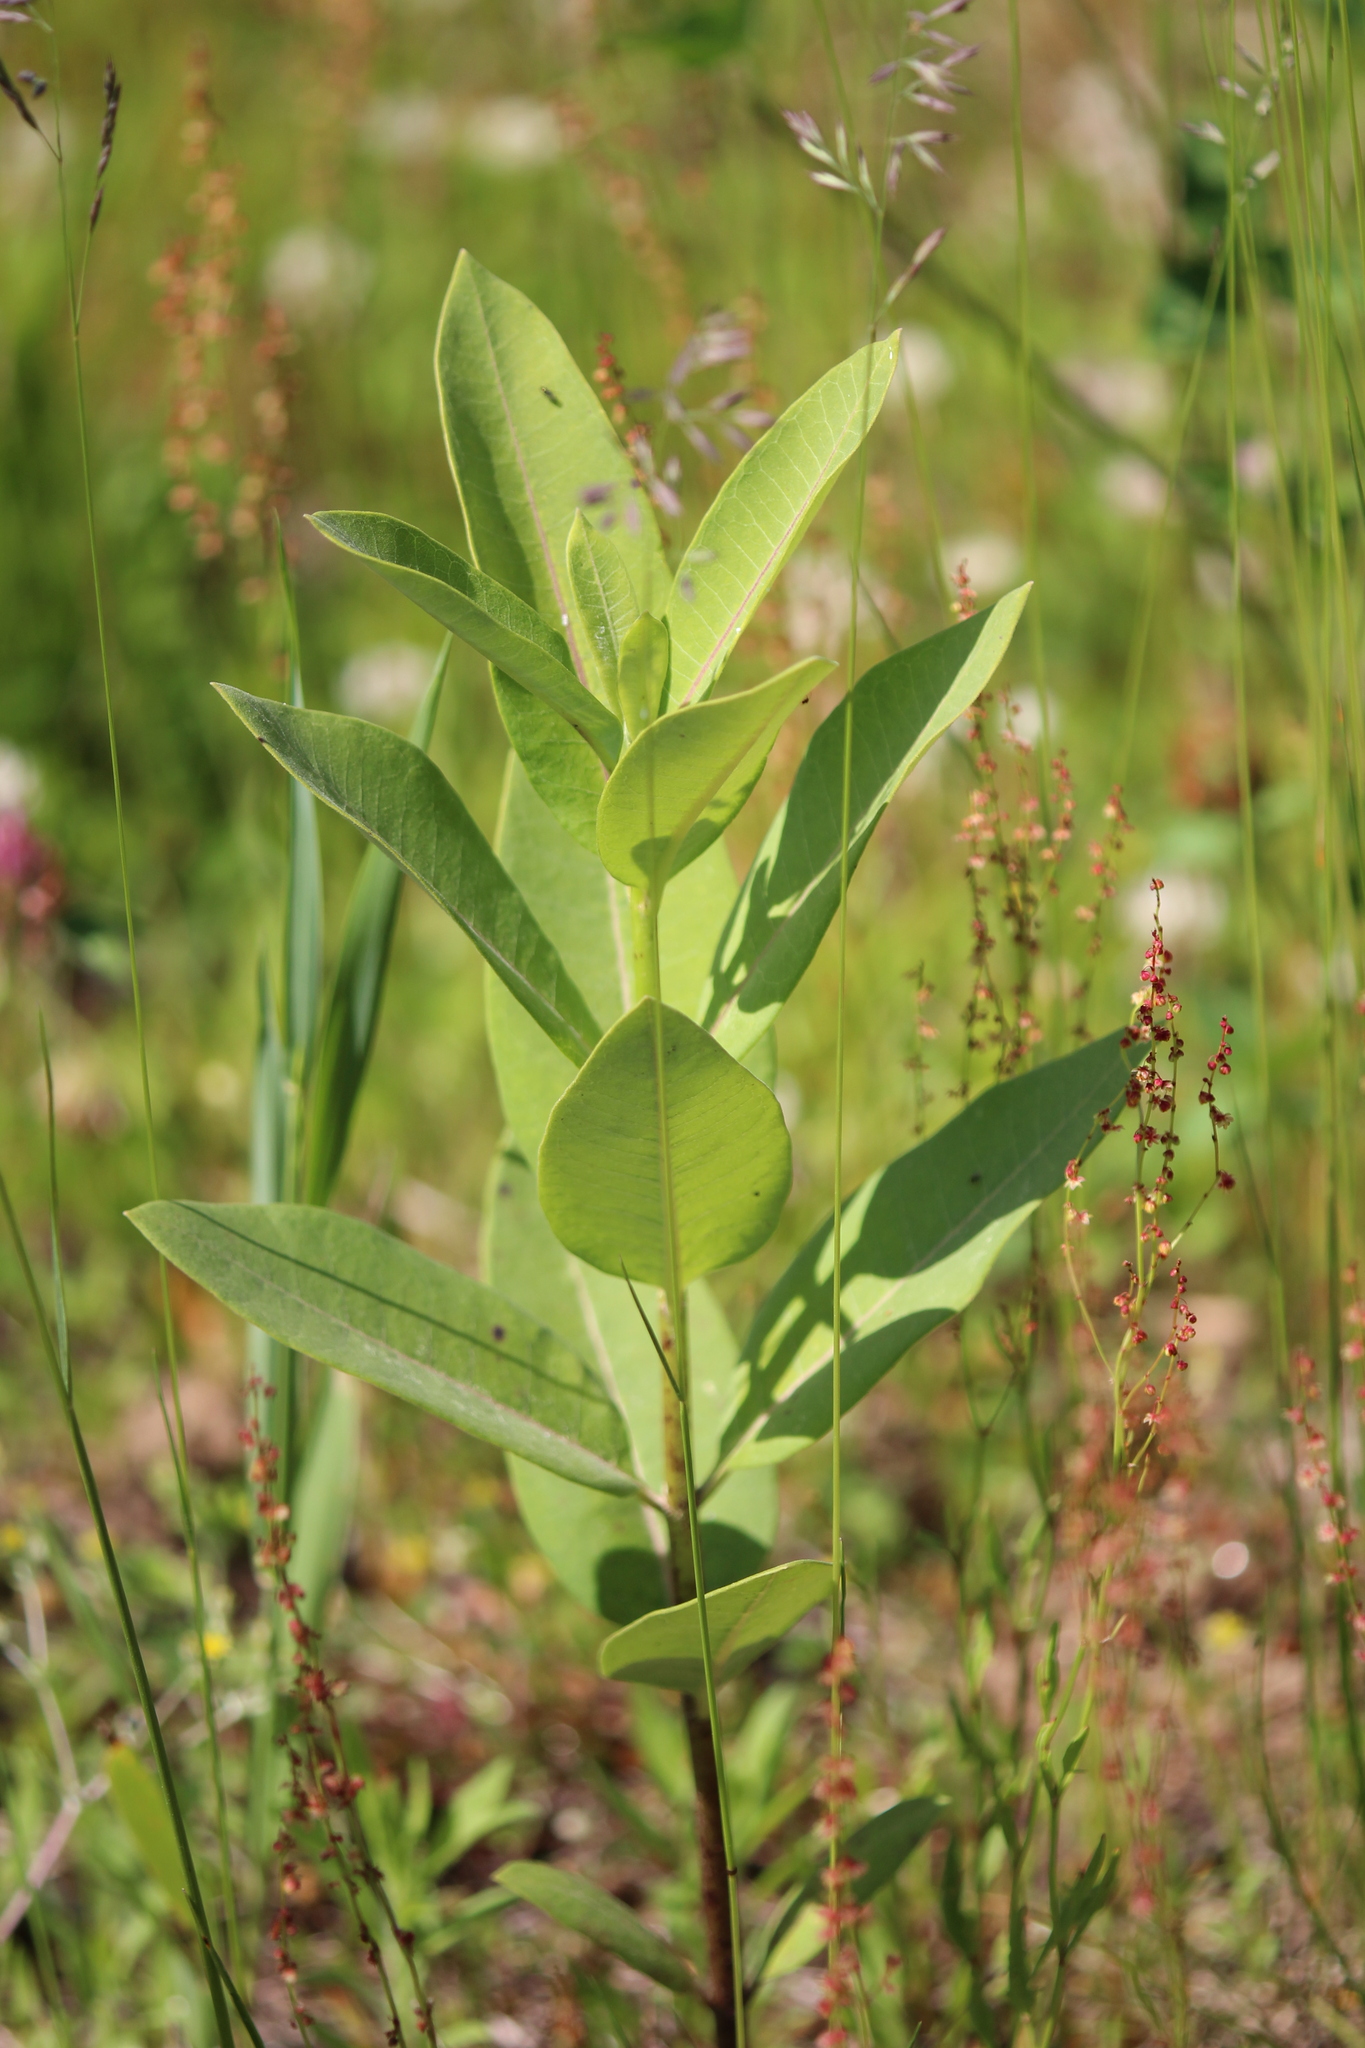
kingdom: Plantae
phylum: Tracheophyta
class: Magnoliopsida
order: Gentianales
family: Apocynaceae
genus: Asclepias
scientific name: Asclepias syriaca
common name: Common milkweed
